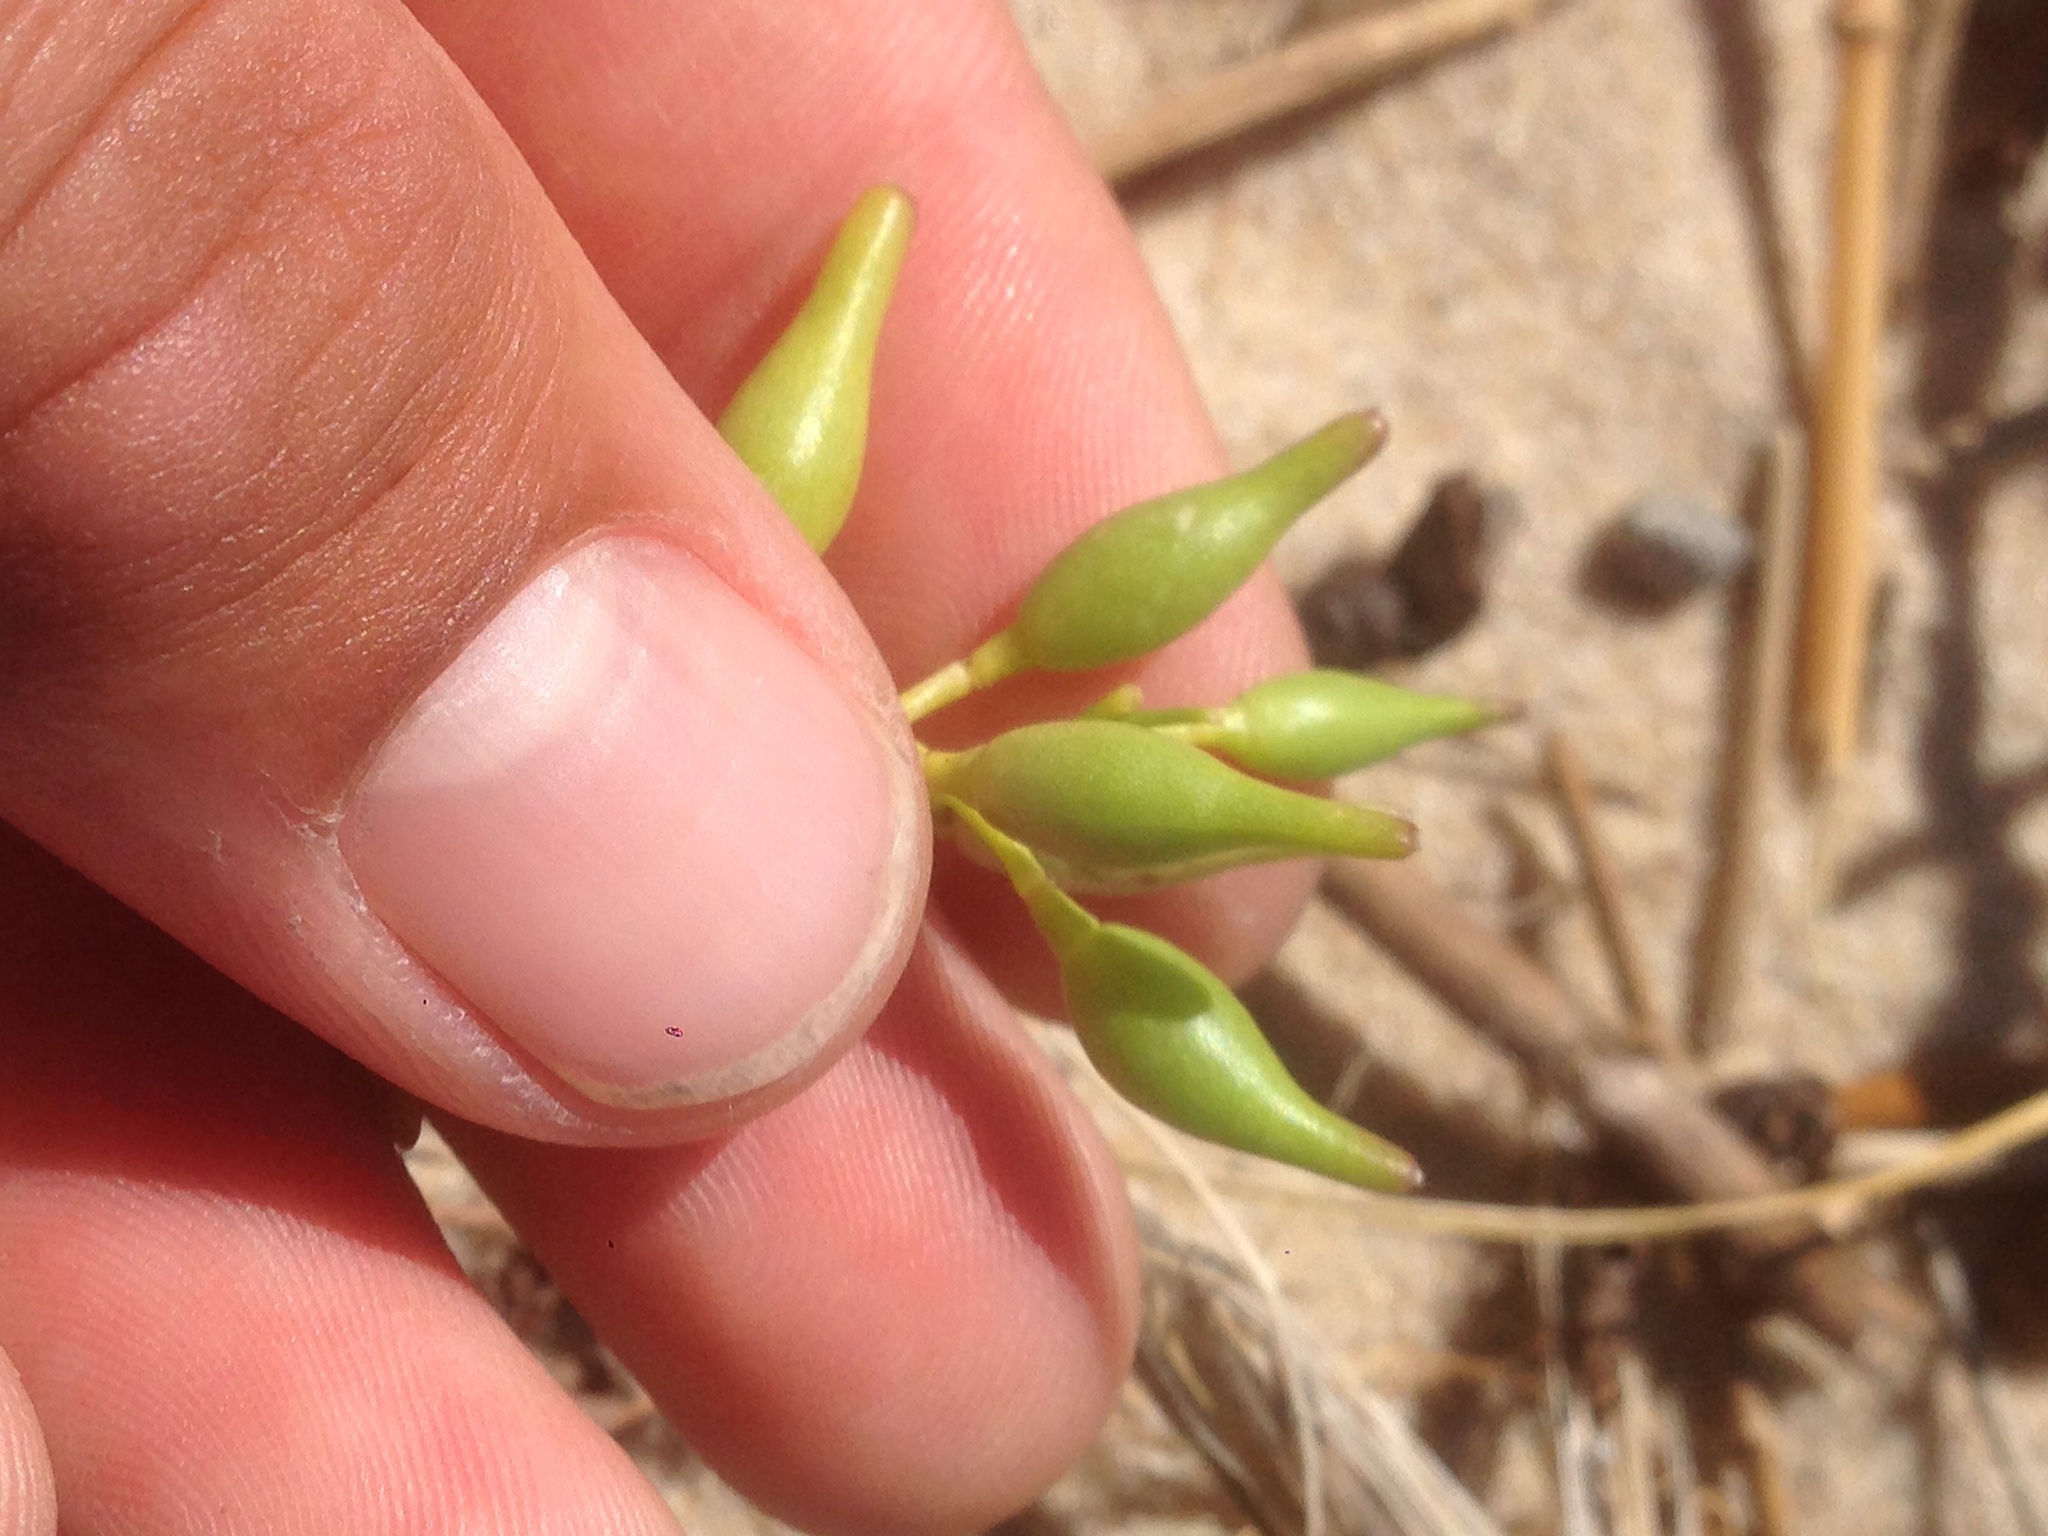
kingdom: Plantae
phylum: Tracheophyta
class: Magnoliopsida
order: Brassicales
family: Brassicaceae
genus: Cakile
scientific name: Cakile edentula
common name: American sea rocket
